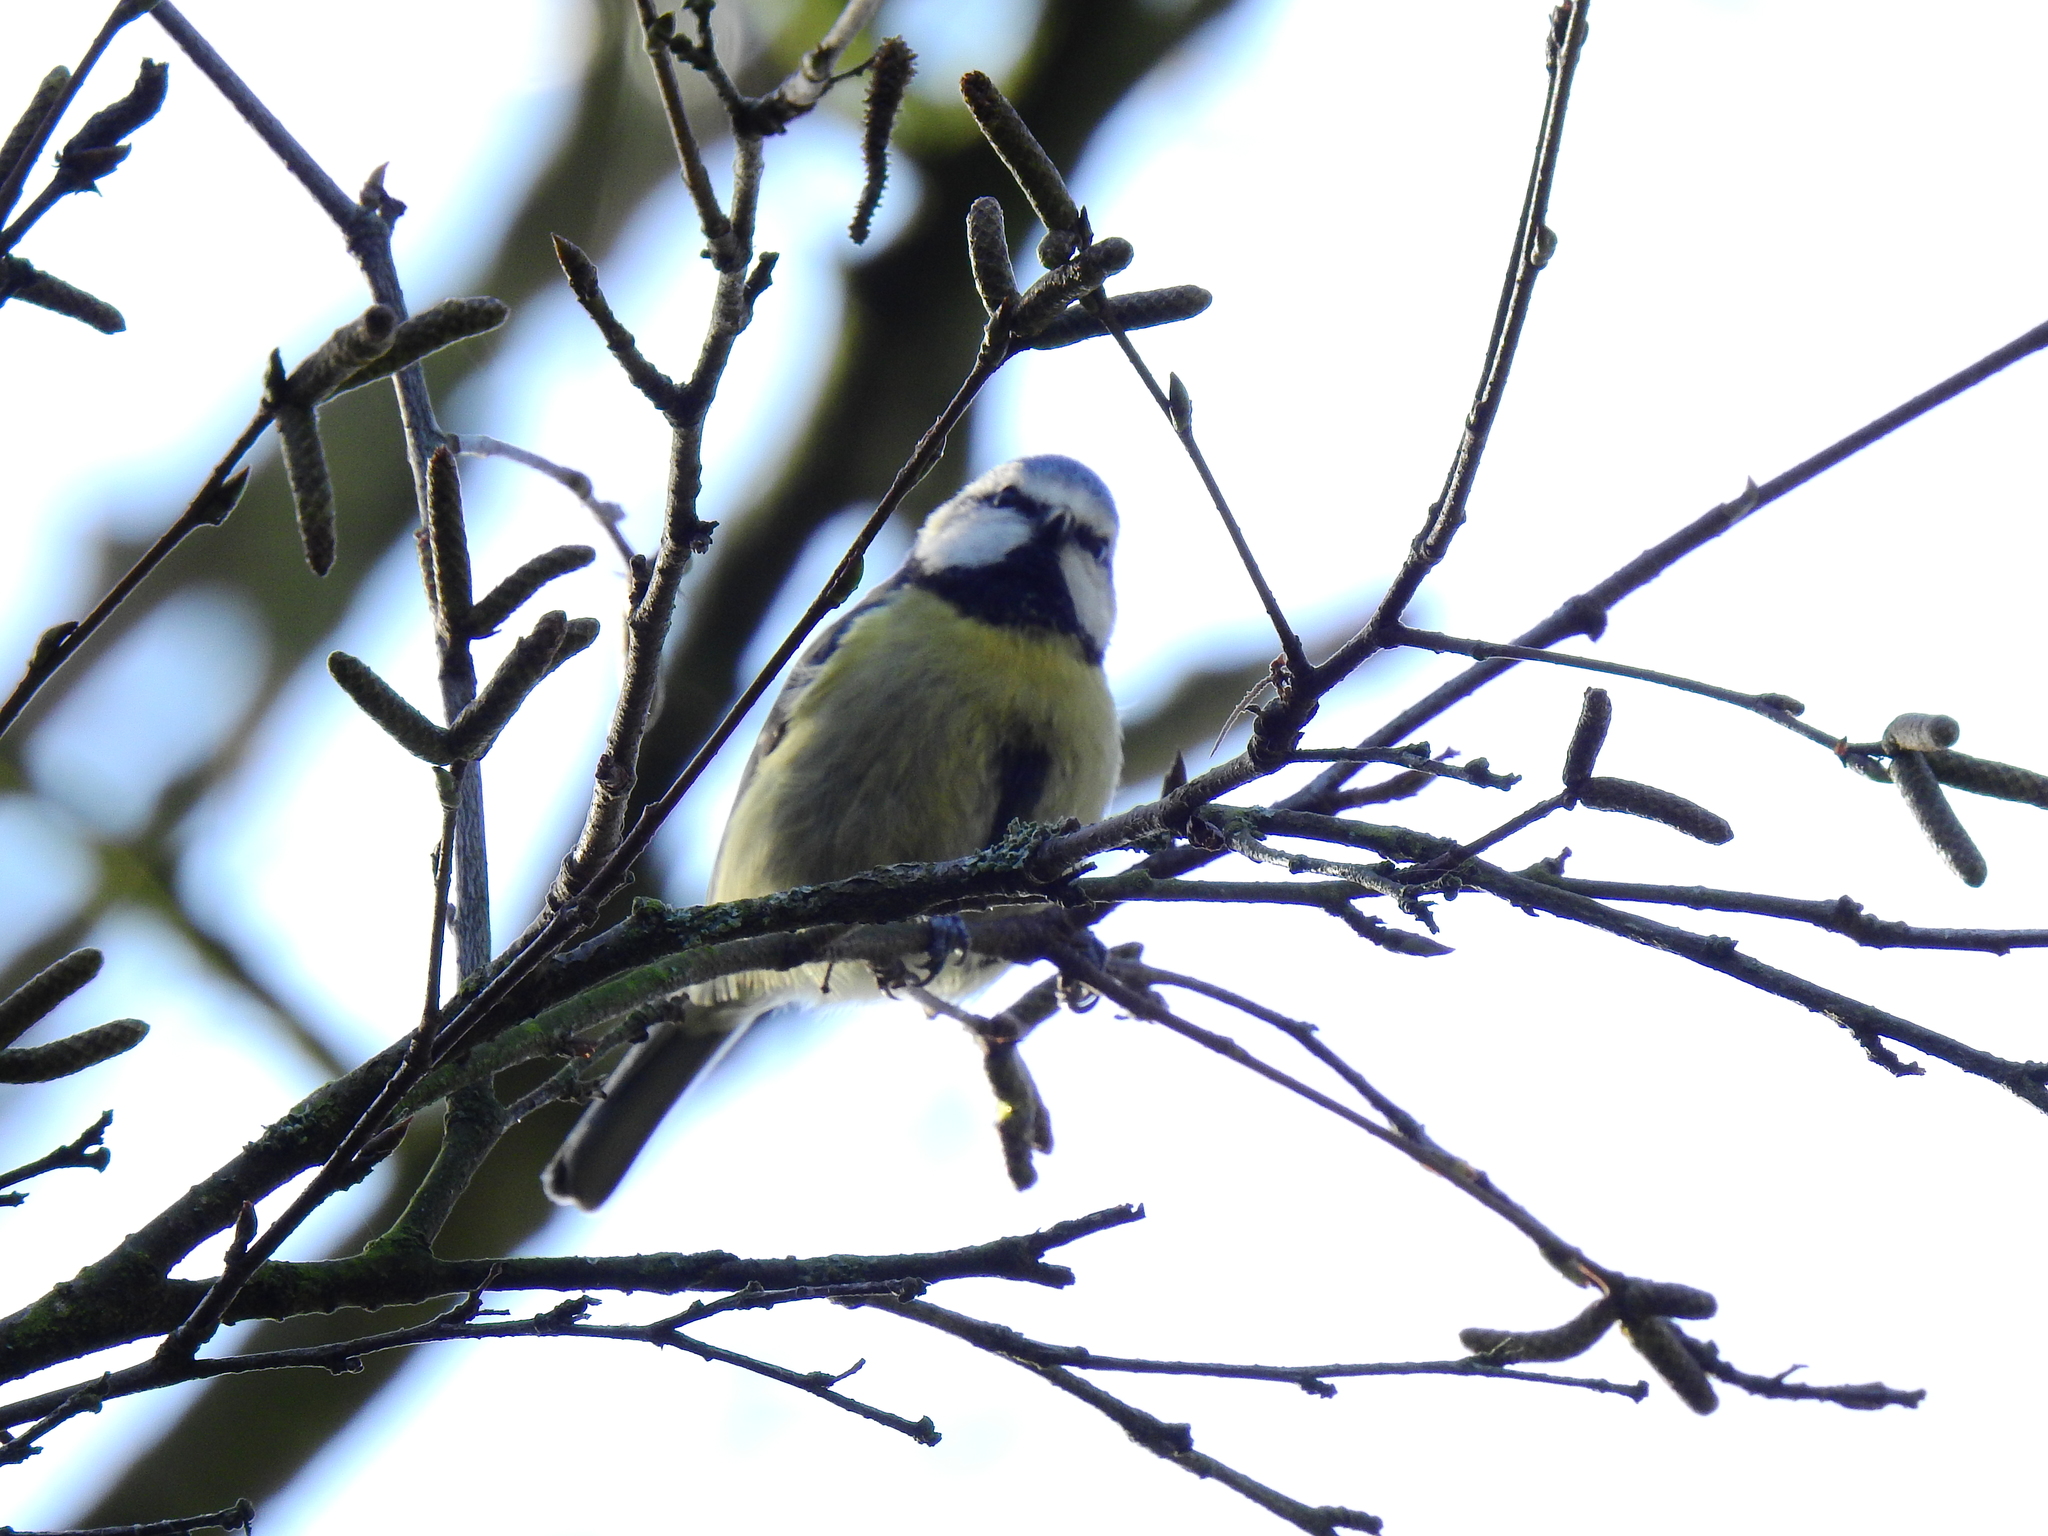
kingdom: Animalia
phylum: Chordata
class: Aves
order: Passeriformes
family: Paridae
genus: Cyanistes
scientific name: Cyanistes caeruleus
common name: Eurasian blue tit
